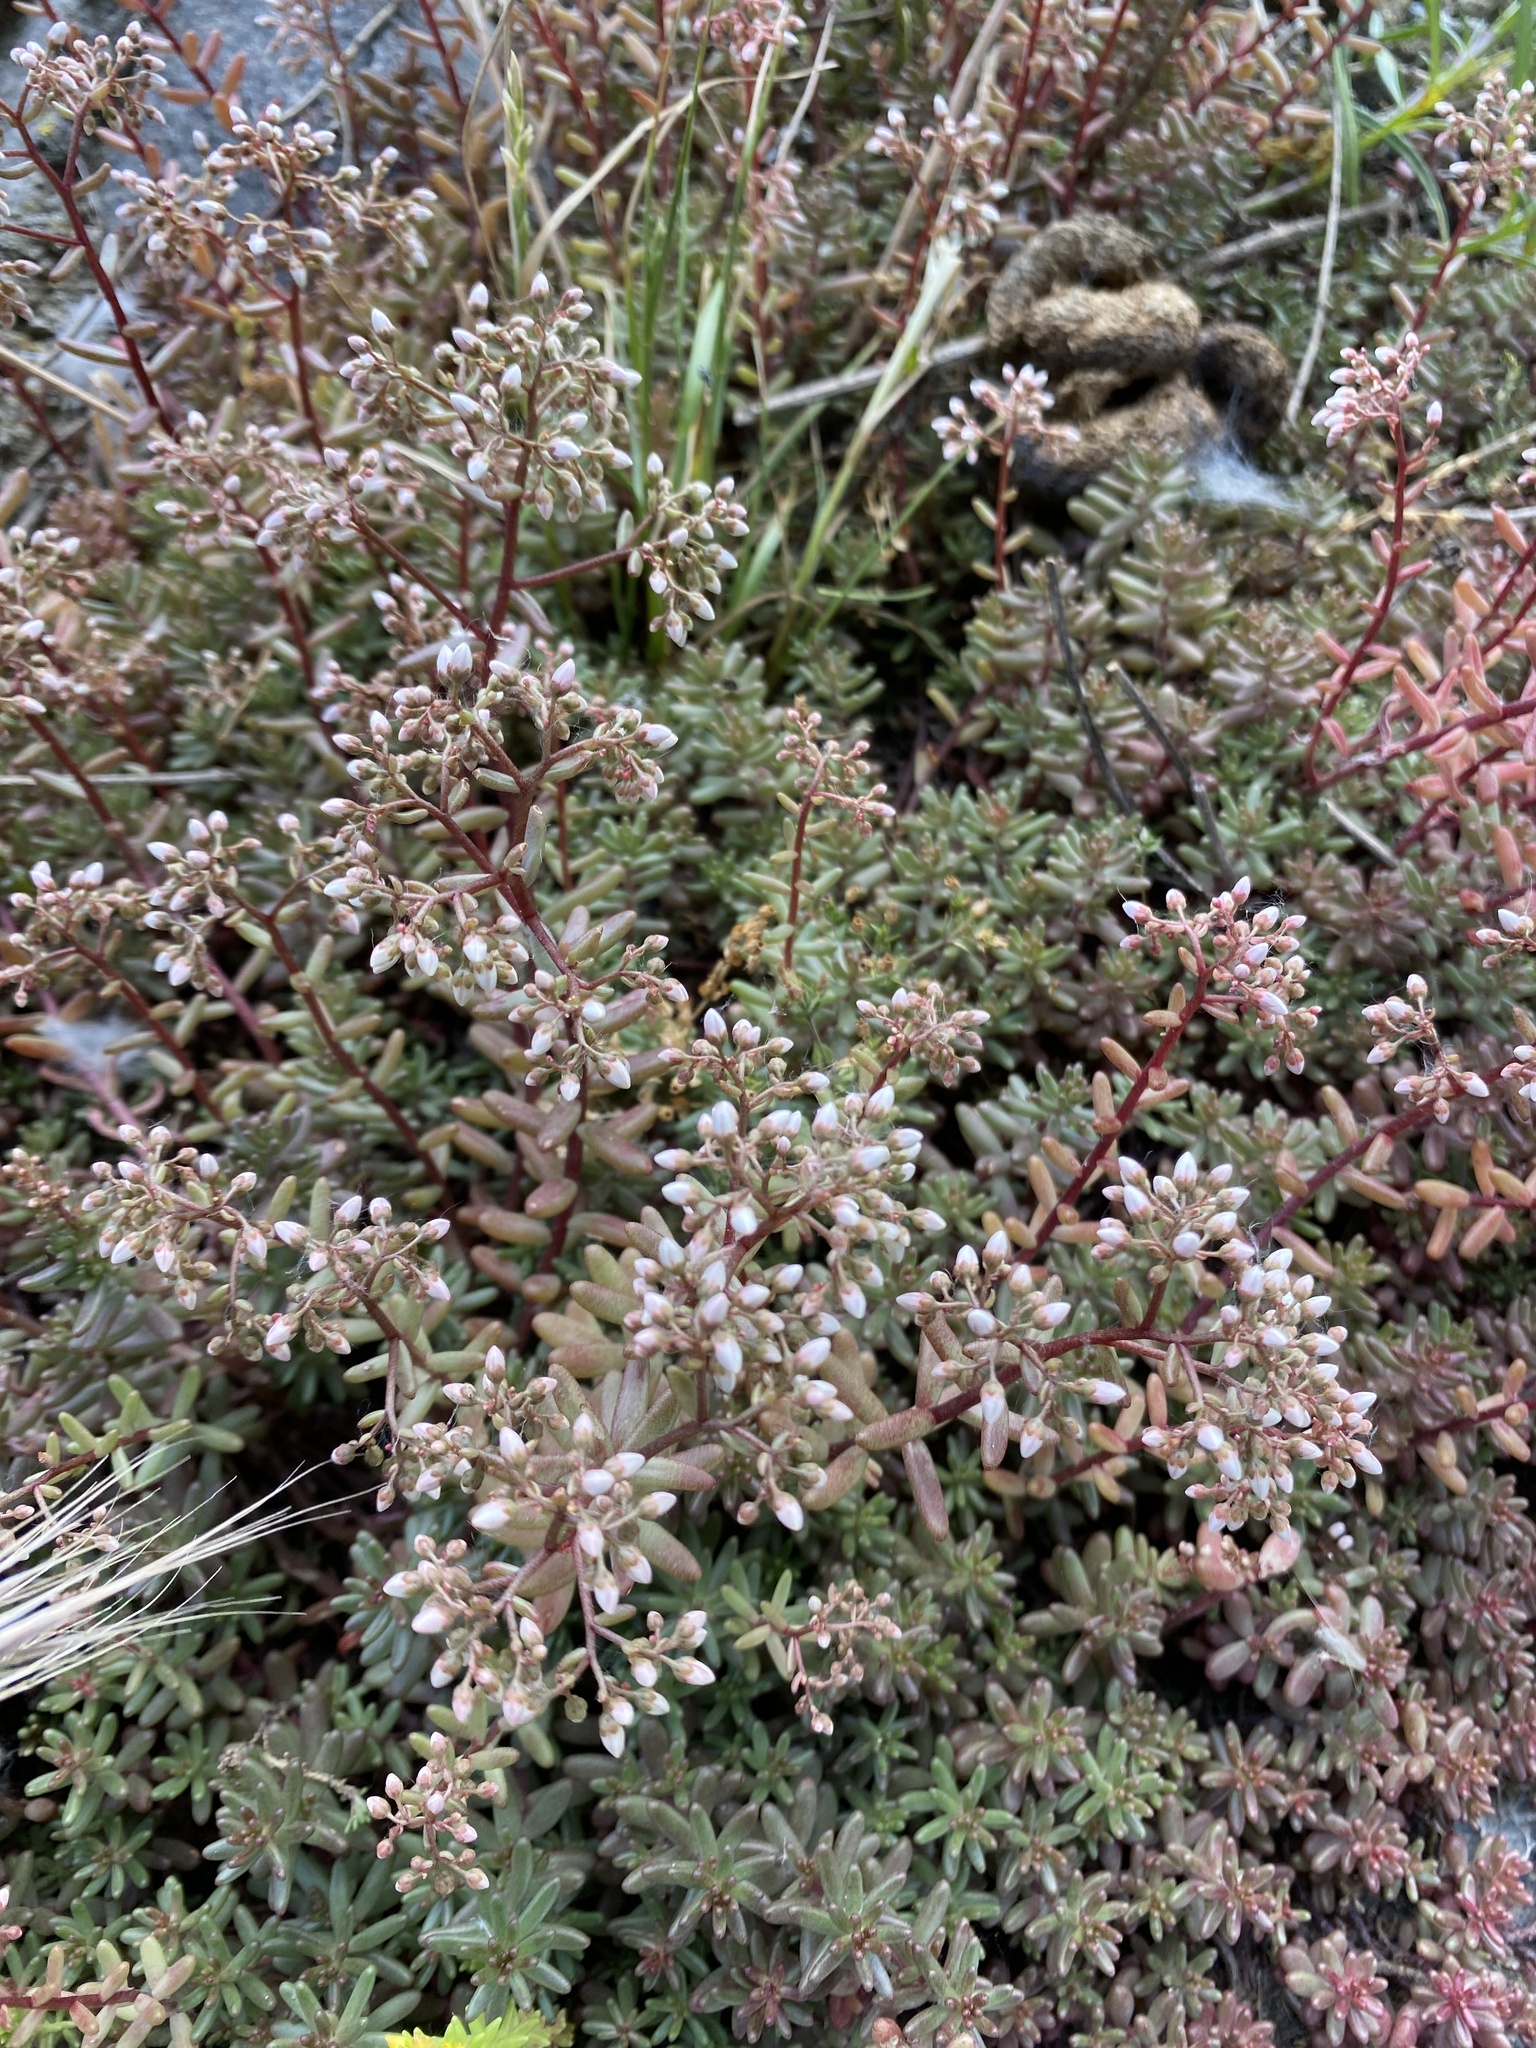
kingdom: Plantae
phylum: Tracheophyta
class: Magnoliopsida
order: Saxifragales
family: Crassulaceae
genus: Sedum
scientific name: Sedum album
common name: White stonecrop
